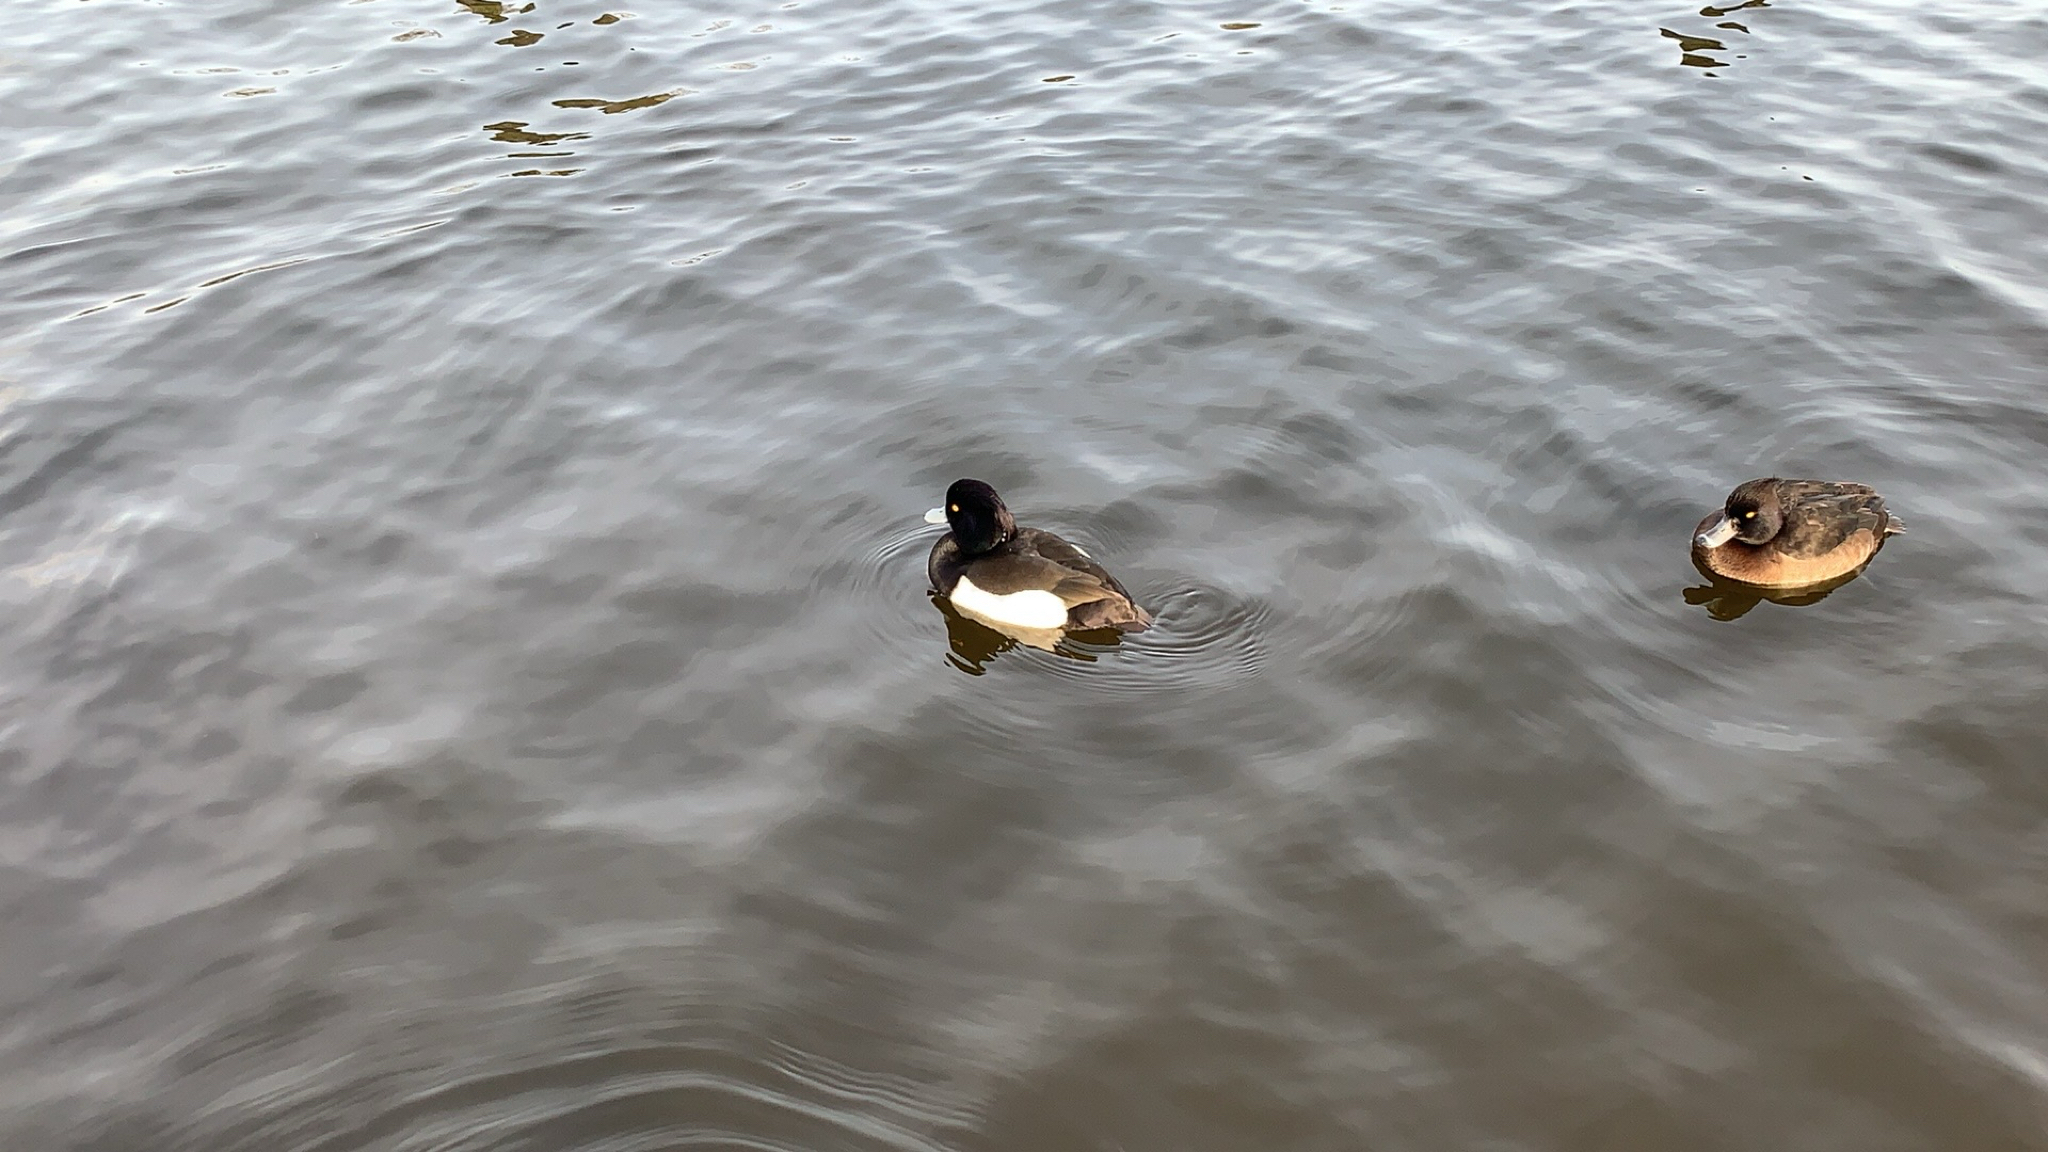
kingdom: Animalia
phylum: Chordata
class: Aves
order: Anseriformes
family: Anatidae
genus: Aythya
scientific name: Aythya fuligula
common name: Tufted duck
